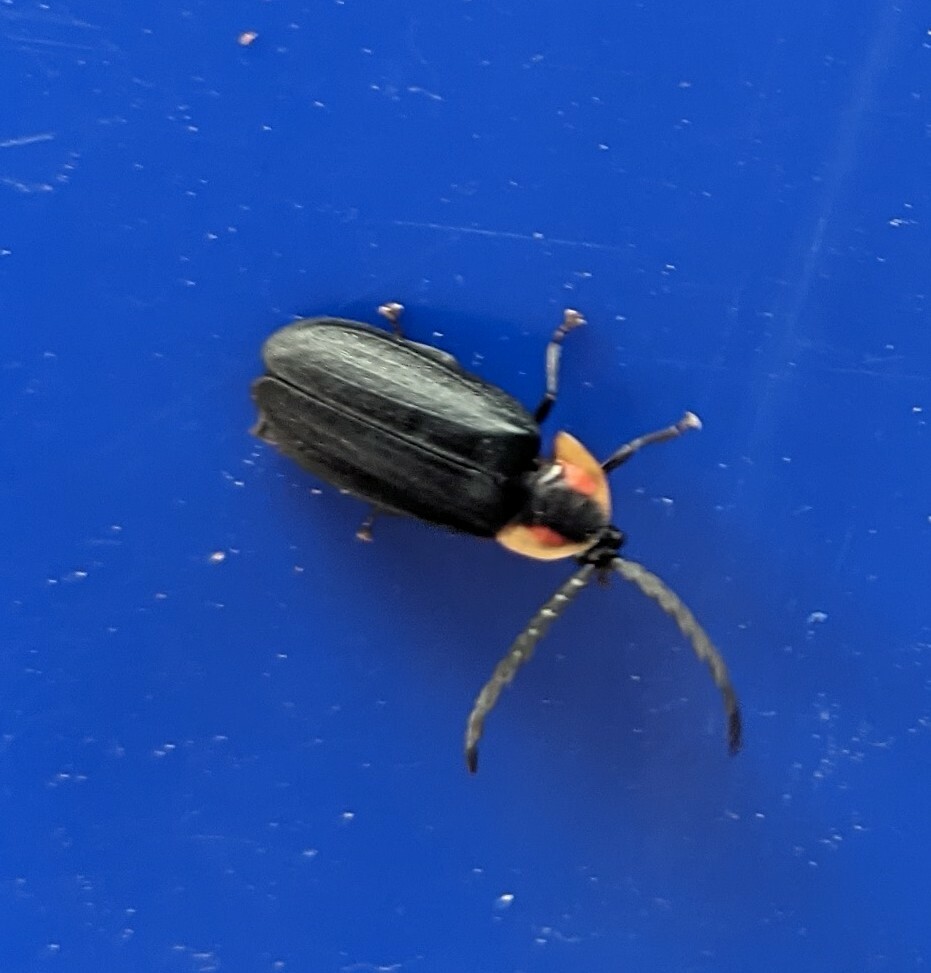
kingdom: Animalia
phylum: Arthropoda
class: Insecta
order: Coleoptera
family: Lampyridae
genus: Lucidota
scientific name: Lucidota atra
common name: Black firefly
